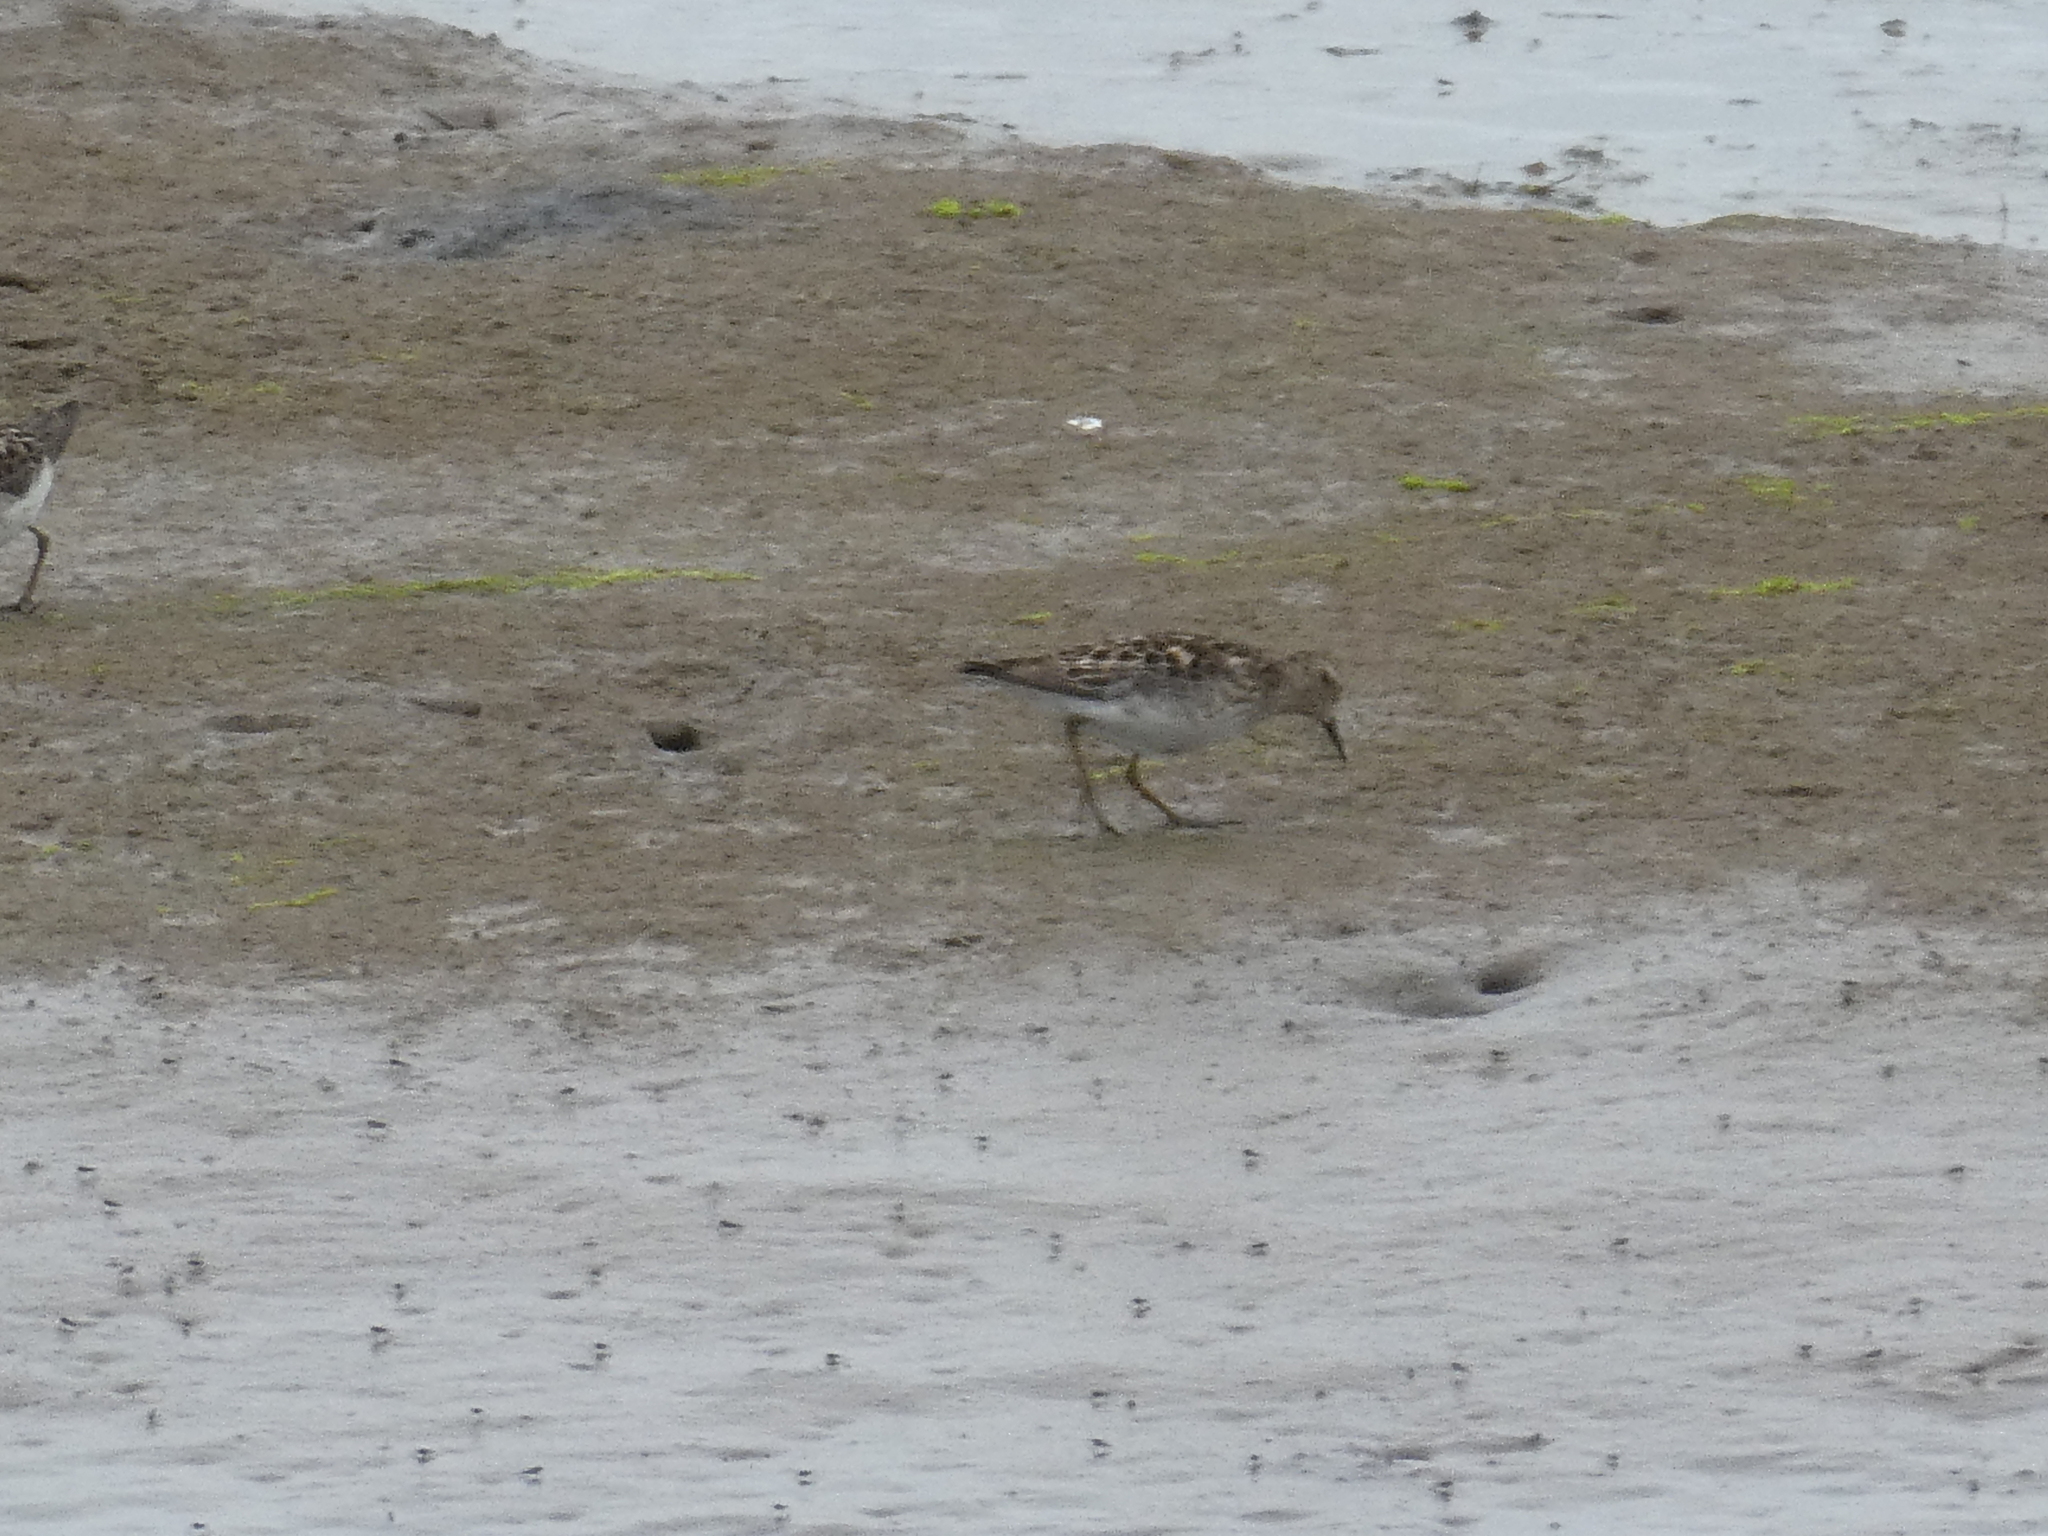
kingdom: Animalia
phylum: Chordata
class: Aves
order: Charadriiformes
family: Scolopacidae
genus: Calidris
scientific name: Calidris minutilla
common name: Least sandpiper
